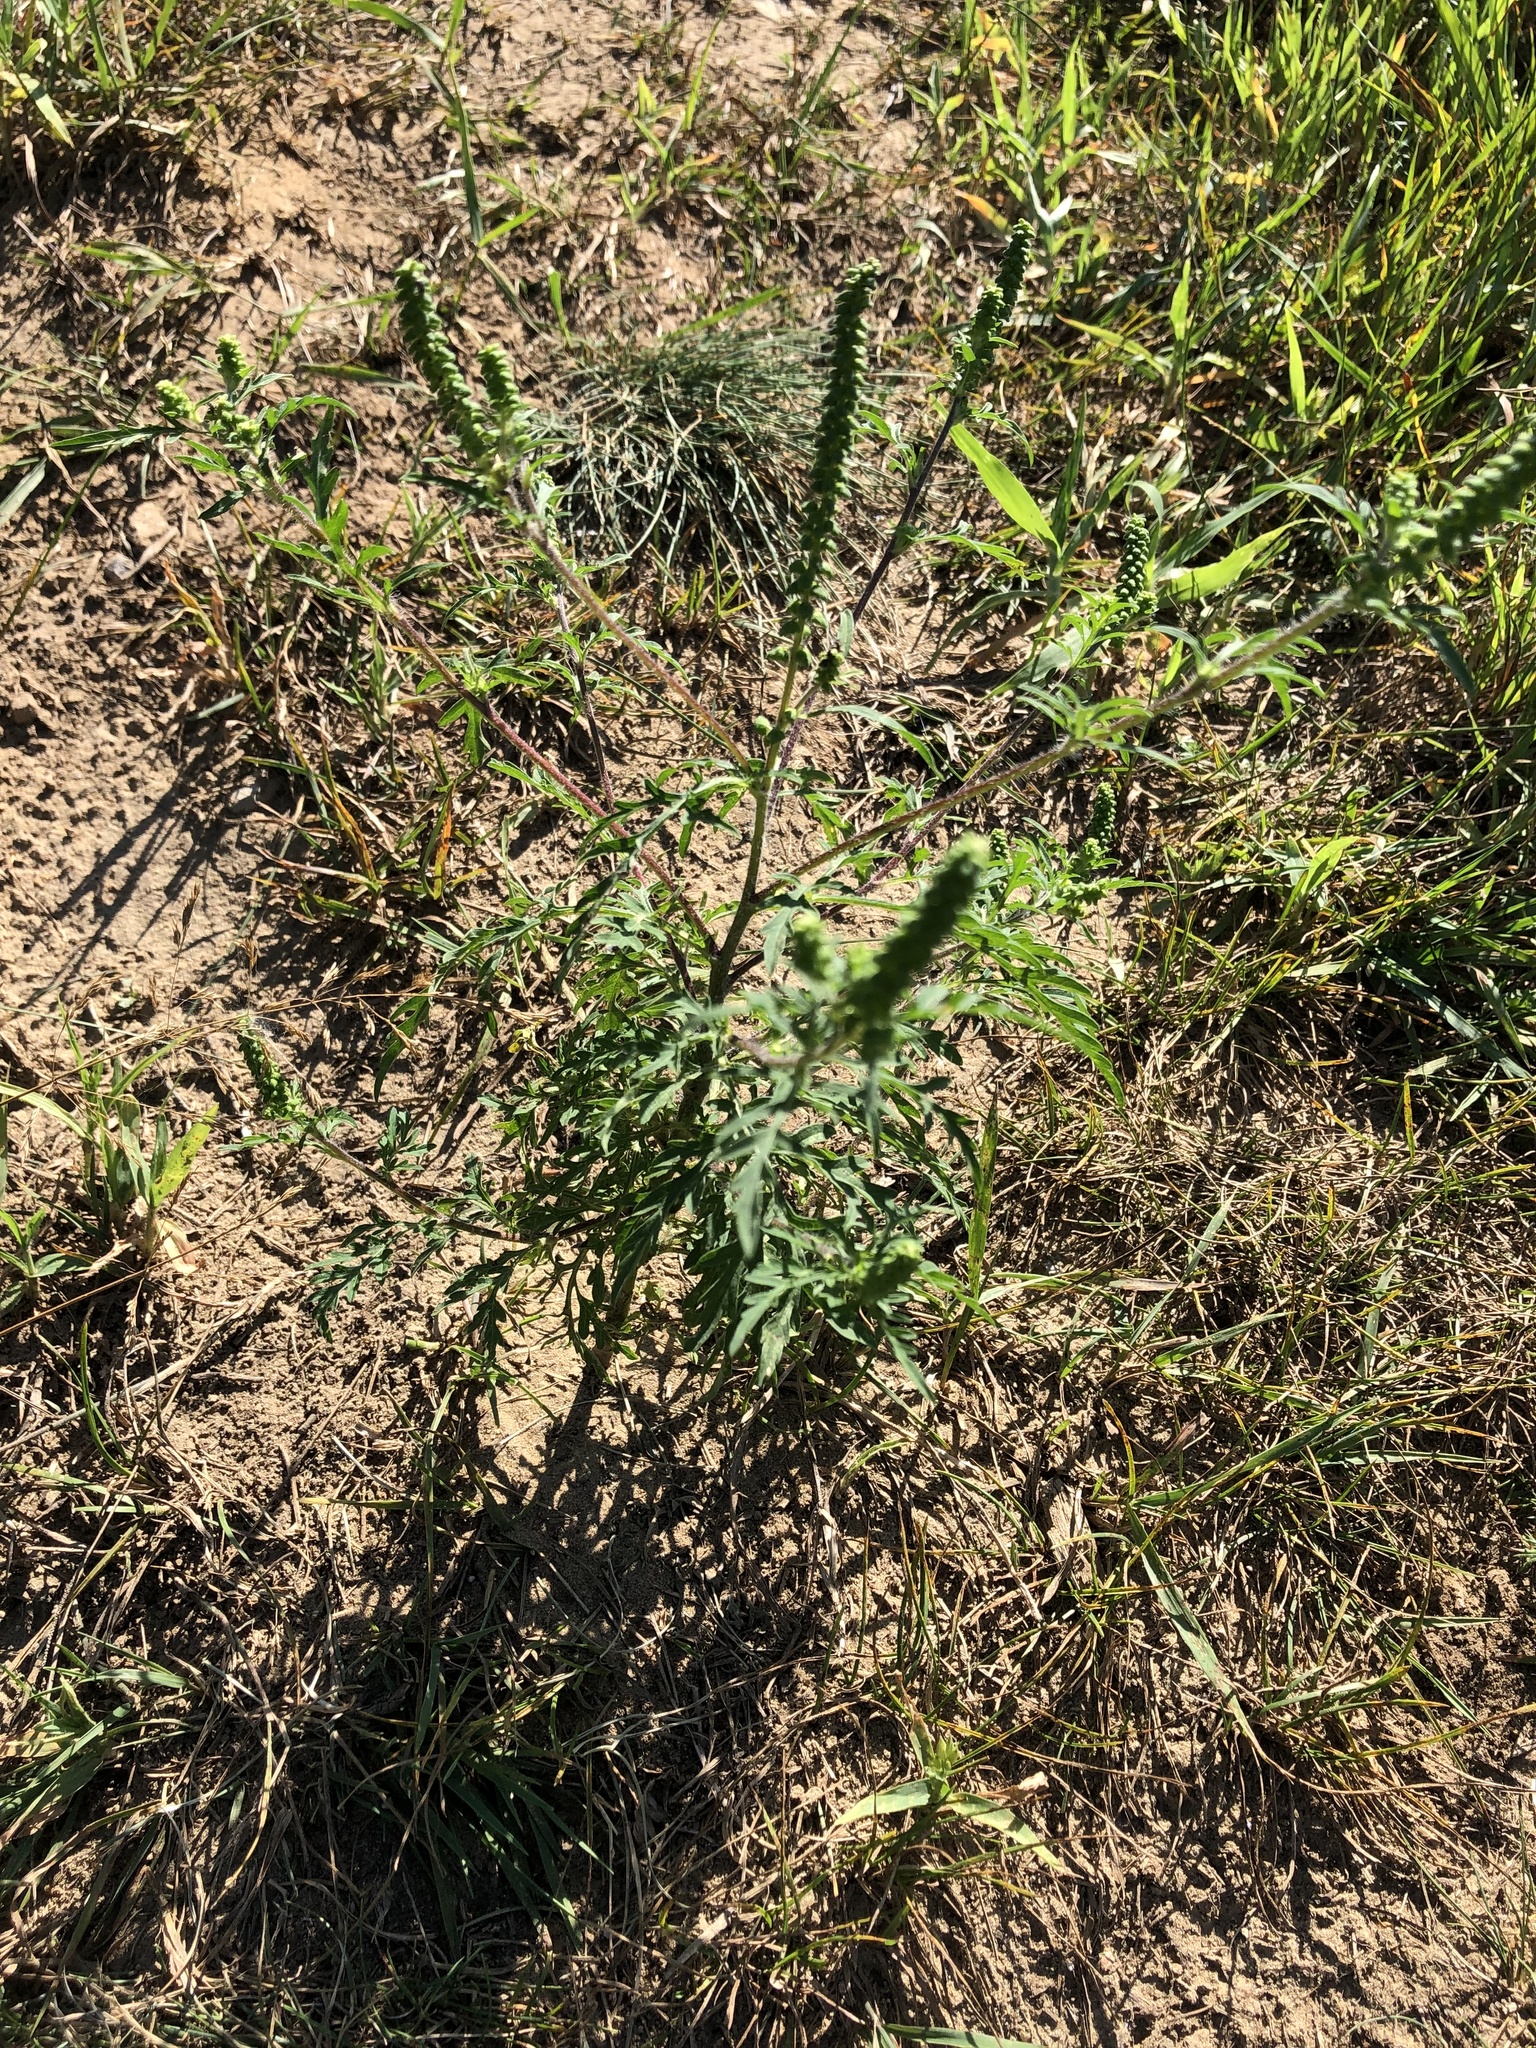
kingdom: Plantae
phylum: Tracheophyta
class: Magnoliopsida
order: Asterales
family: Asteraceae
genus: Ambrosia
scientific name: Ambrosia artemisiifolia
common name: Annual ragweed
